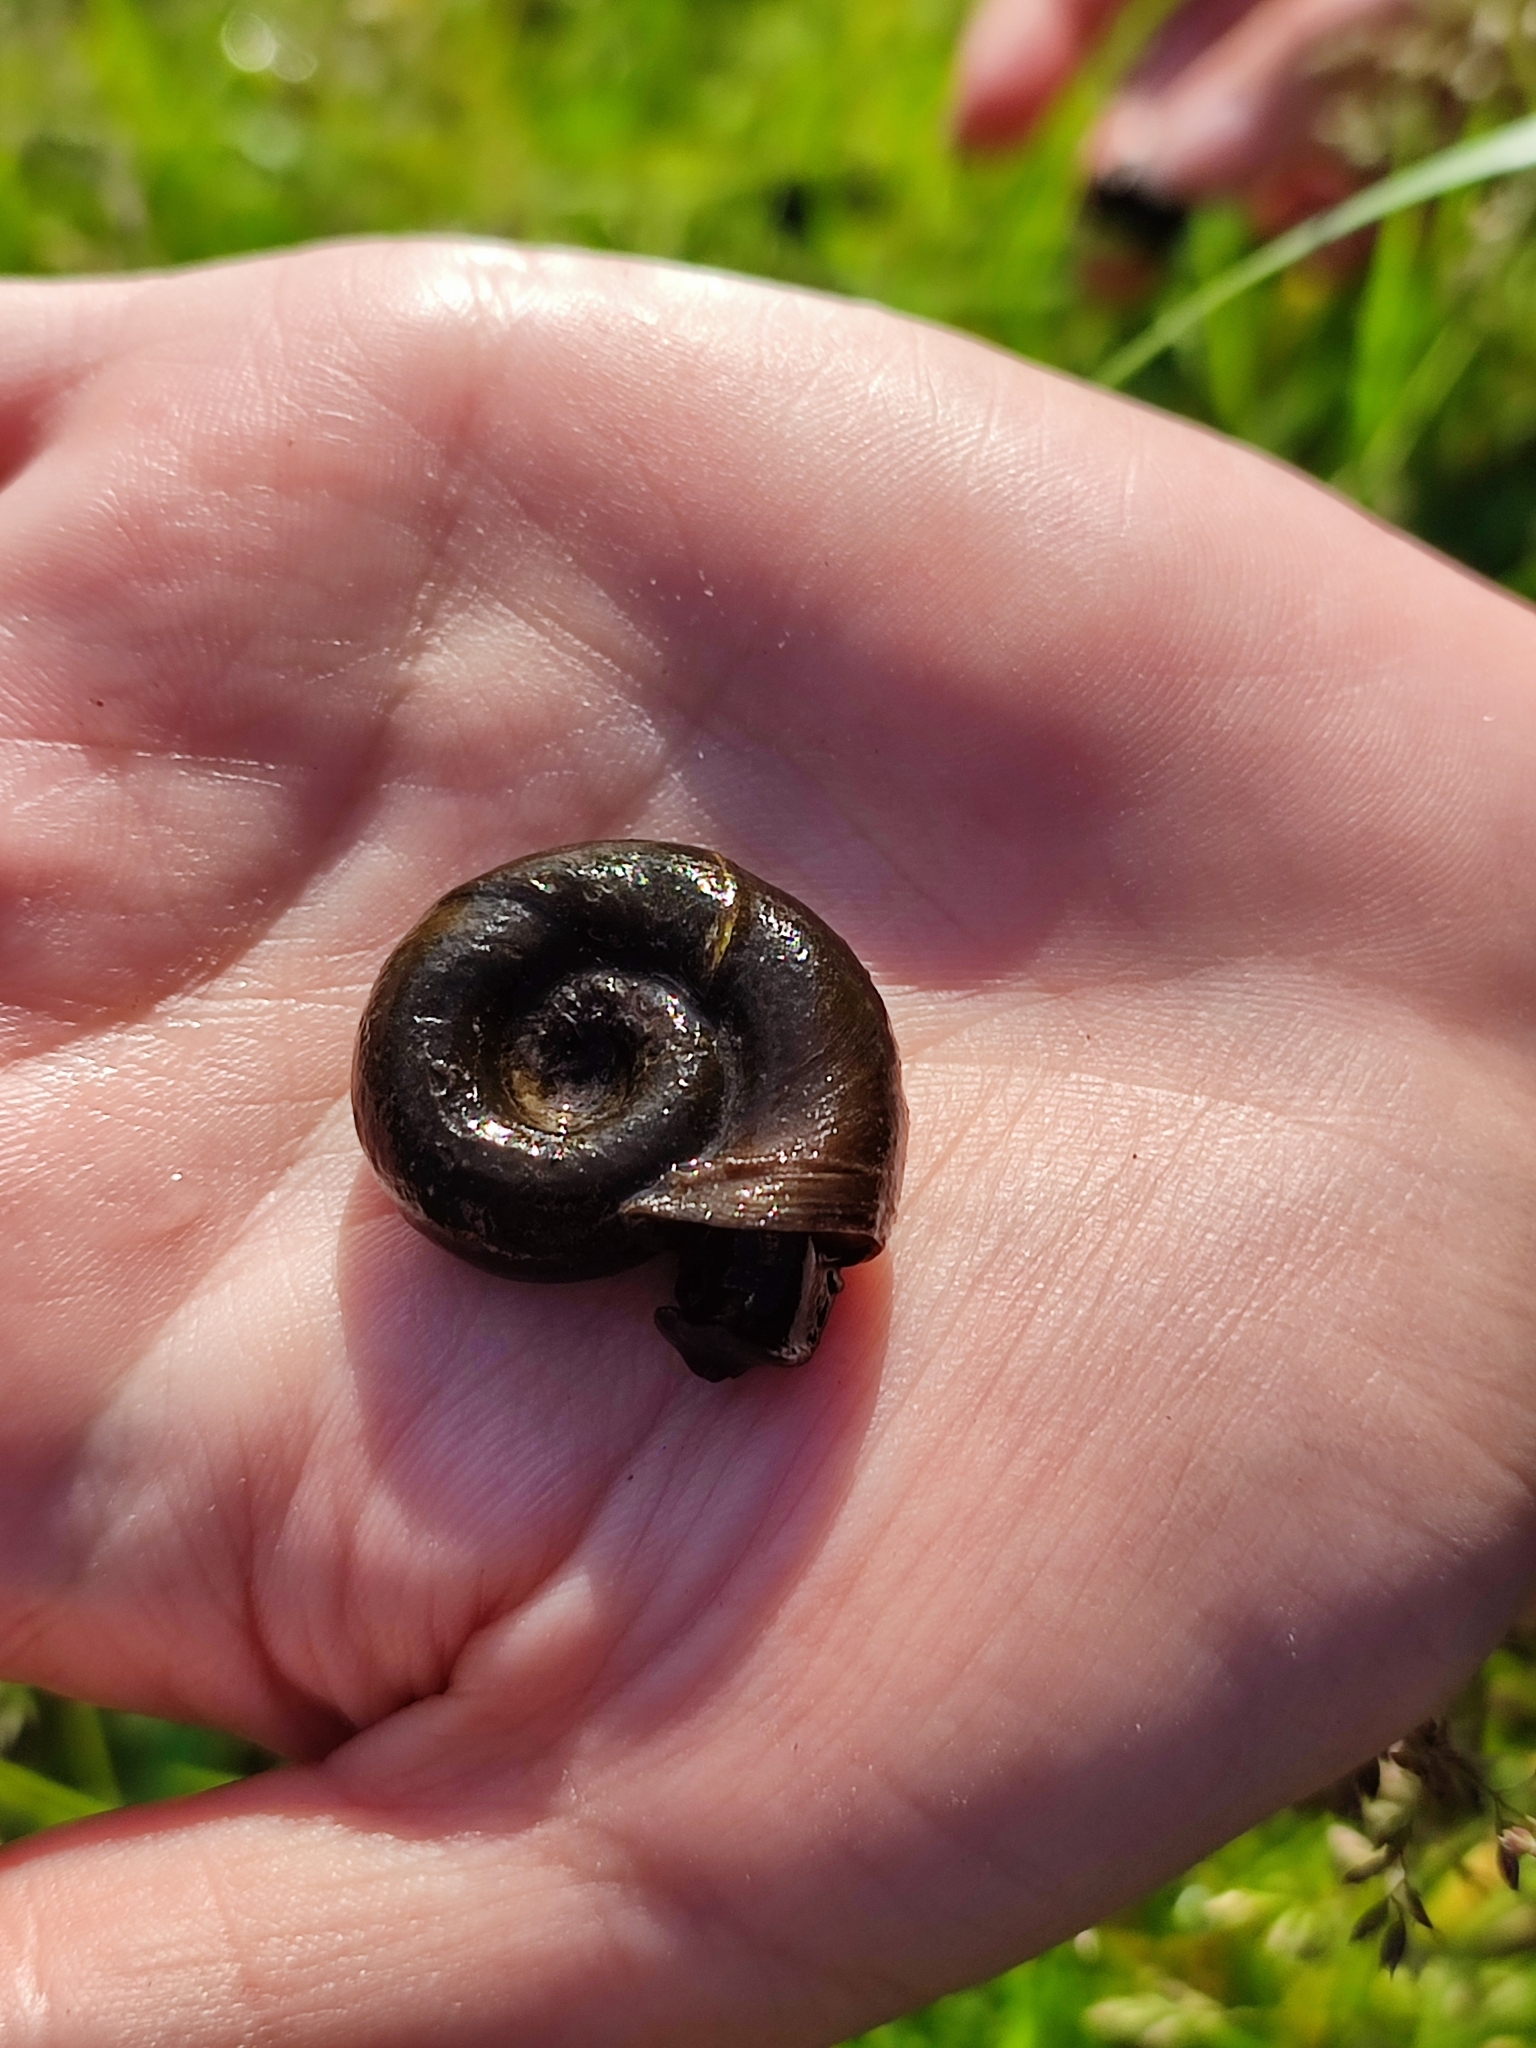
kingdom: Animalia
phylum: Mollusca
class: Gastropoda
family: Planorbidae
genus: Planorbarius
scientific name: Planorbarius corneus
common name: Great ramshorn
